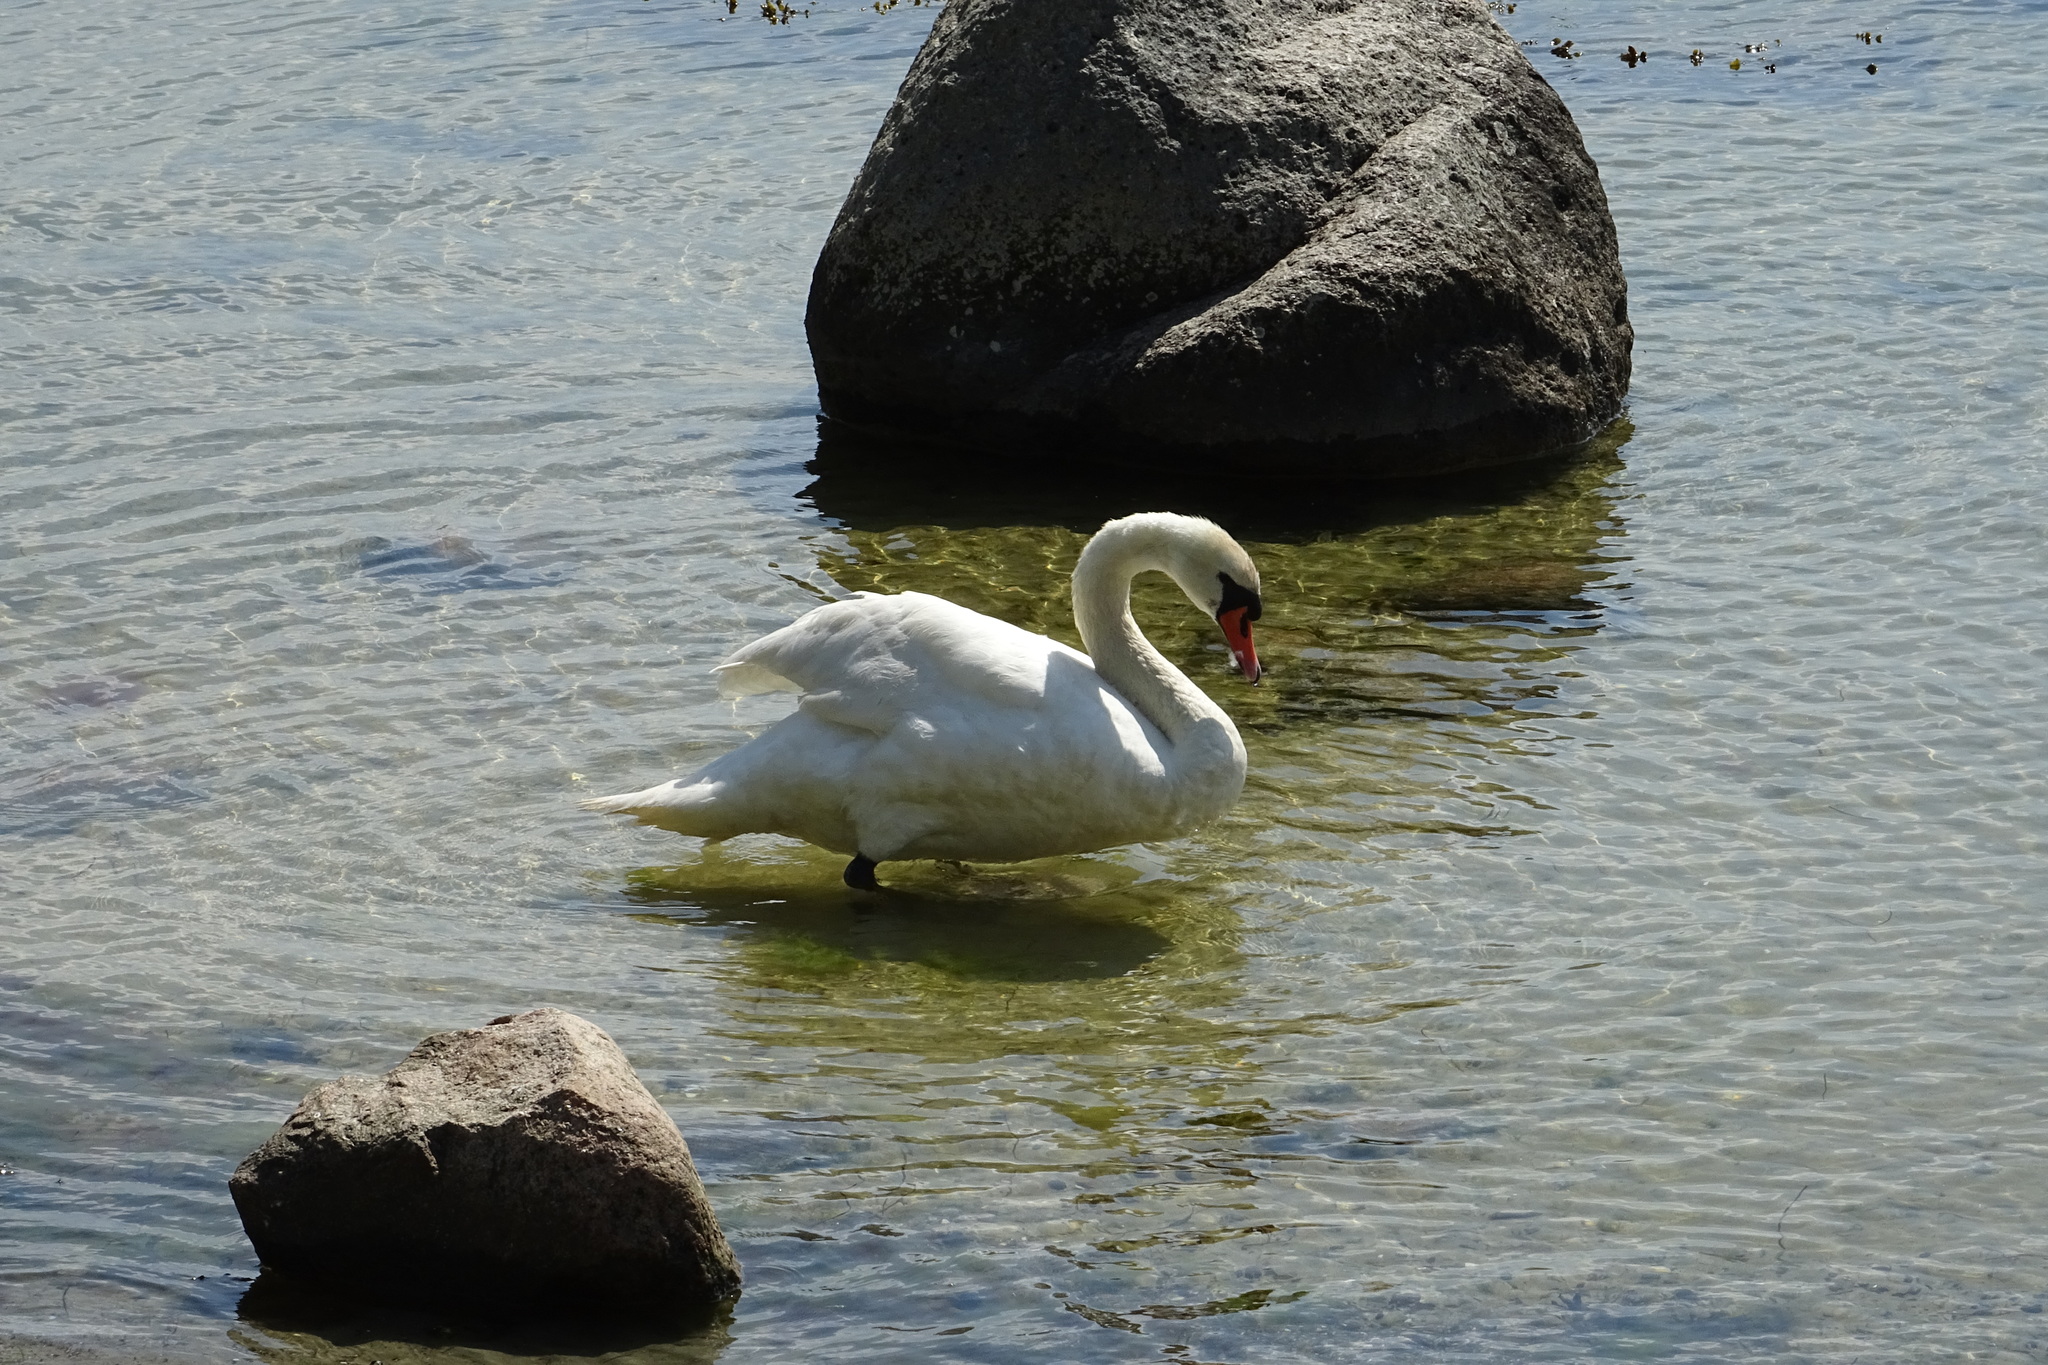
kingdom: Animalia
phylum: Chordata
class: Aves
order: Anseriformes
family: Anatidae
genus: Cygnus
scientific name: Cygnus olor
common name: Mute swan
